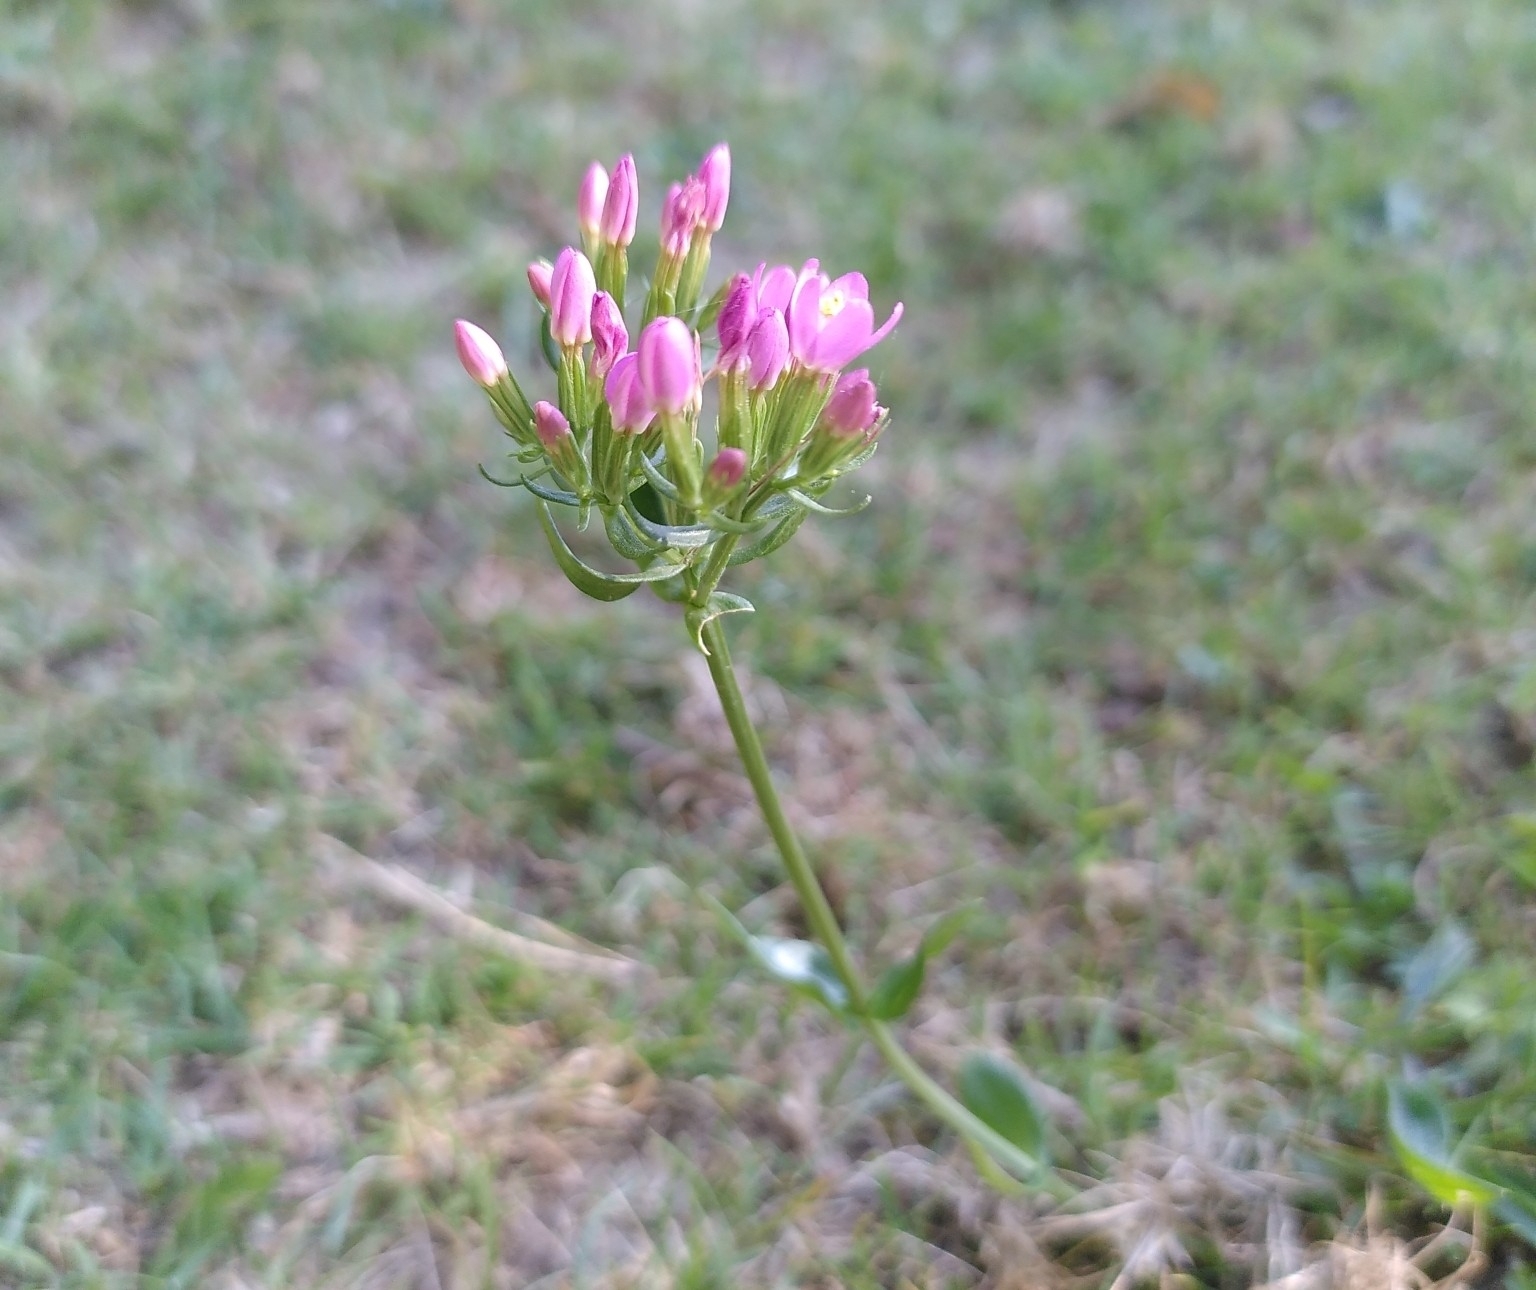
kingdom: Plantae
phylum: Tracheophyta
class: Magnoliopsida
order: Gentianales
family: Gentianaceae
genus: Centaurium
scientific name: Centaurium erythraea
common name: Common centaury
